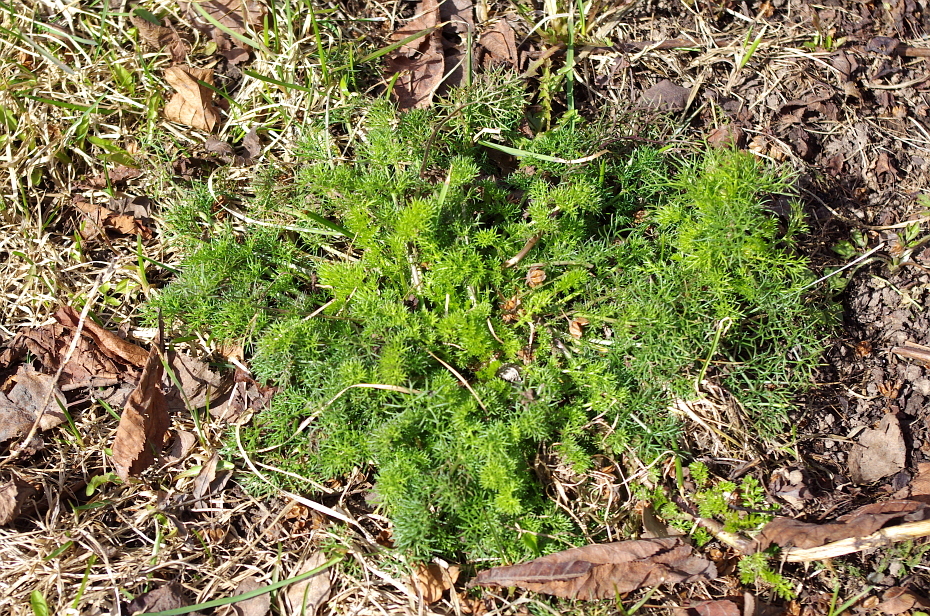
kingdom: Plantae
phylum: Tracheophyta
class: Magnoliopsida
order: Asterales
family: Asteraceae
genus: Tripleurospermum
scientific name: Tripleurospermum inodorum
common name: Scentless mayweed
